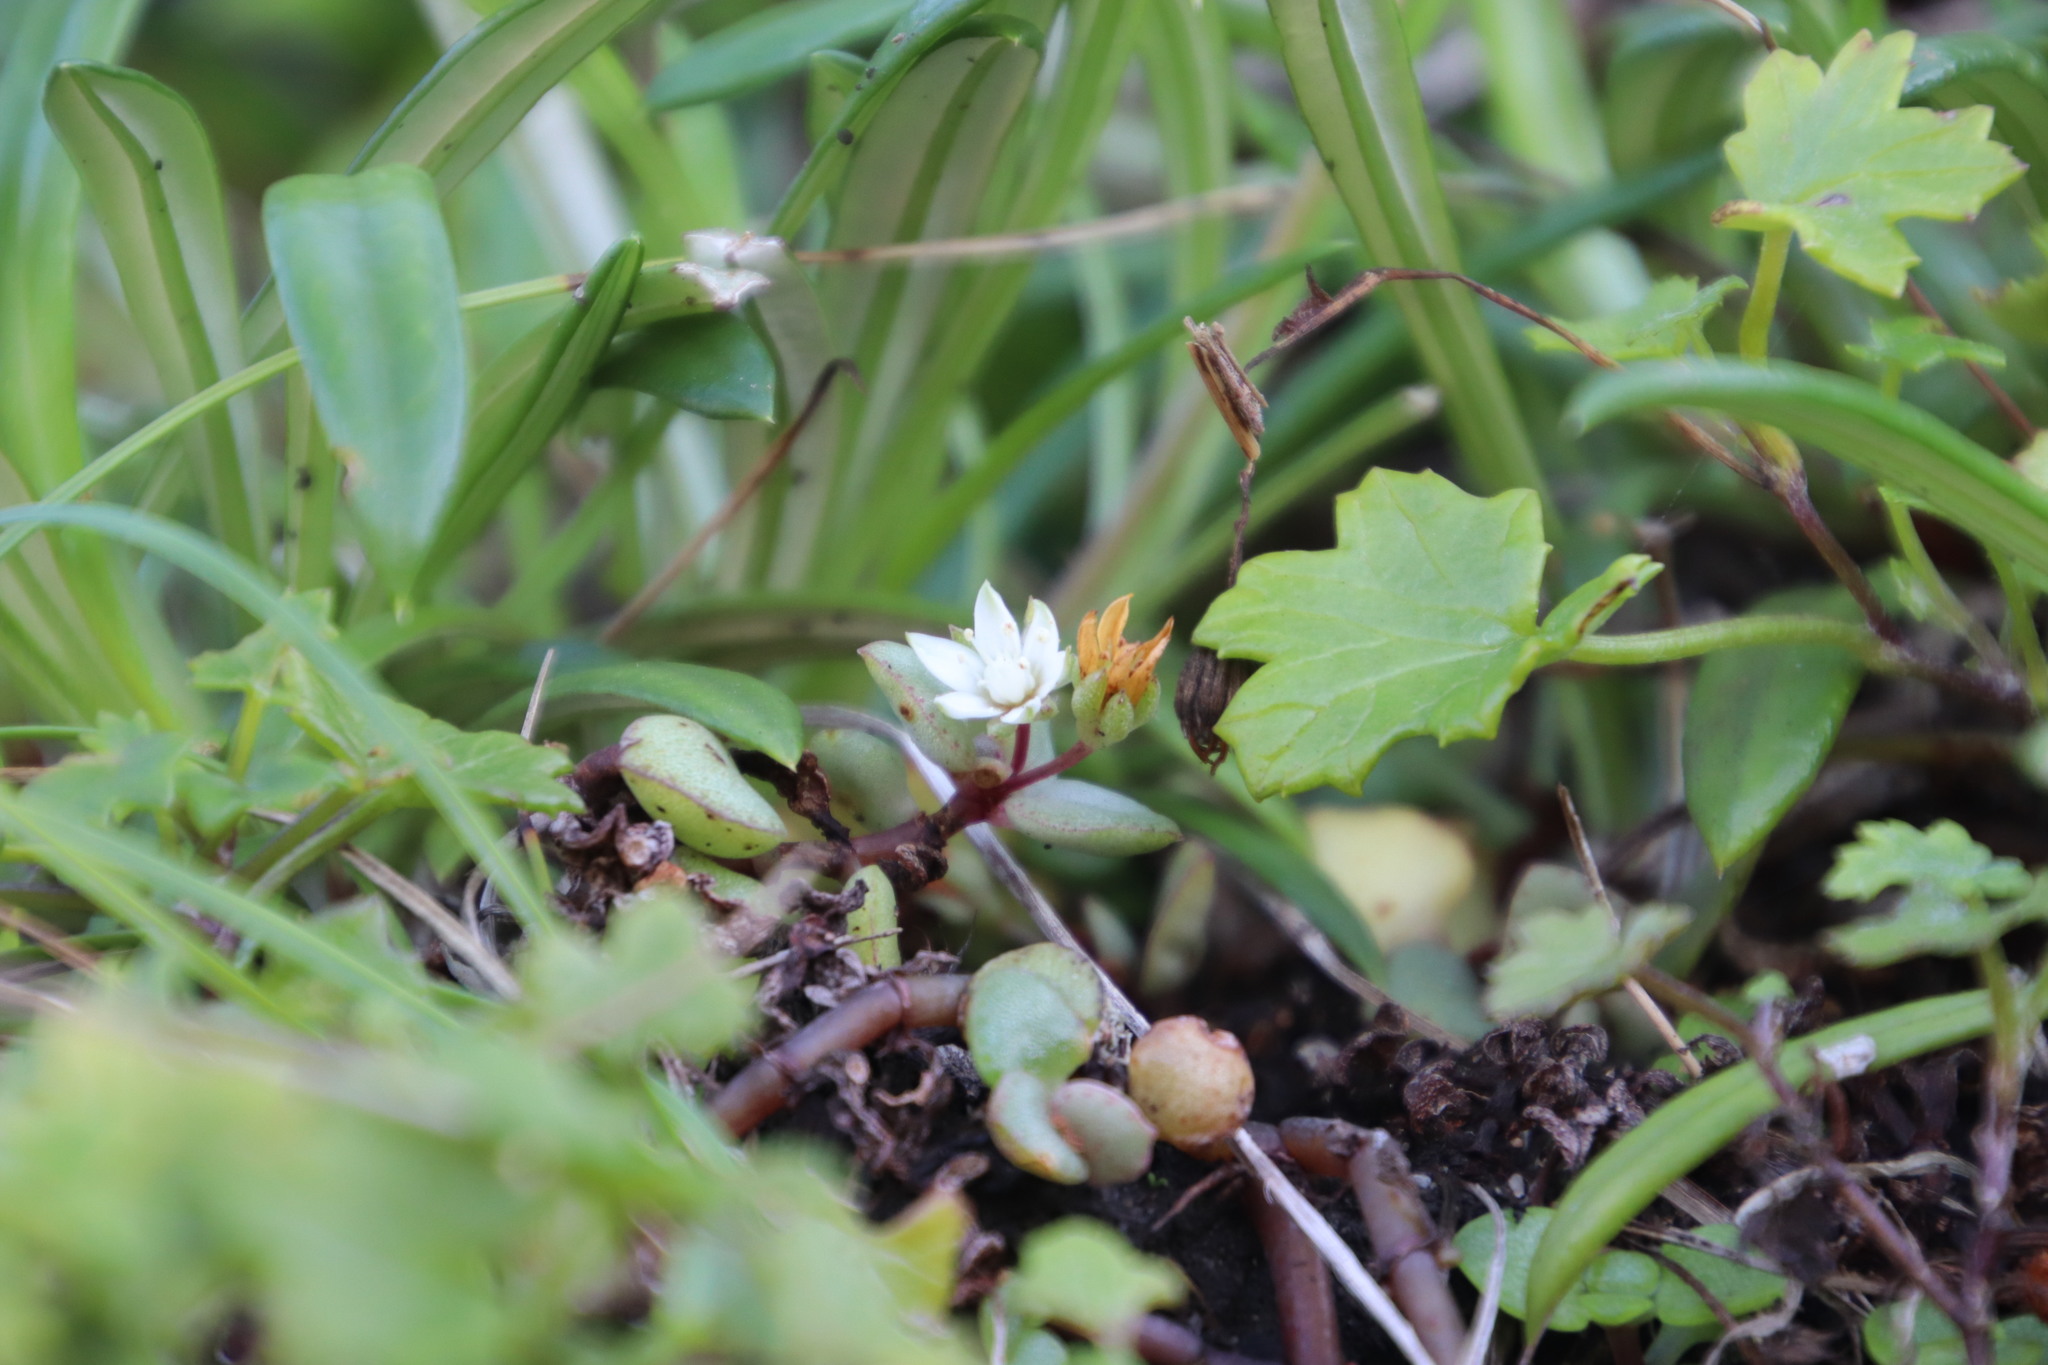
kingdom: Plantae
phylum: Tracheophyta
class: Magnoliopsida
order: Saxifragales
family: Crassulaceae
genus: Crassula
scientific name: Crassula pellucida
